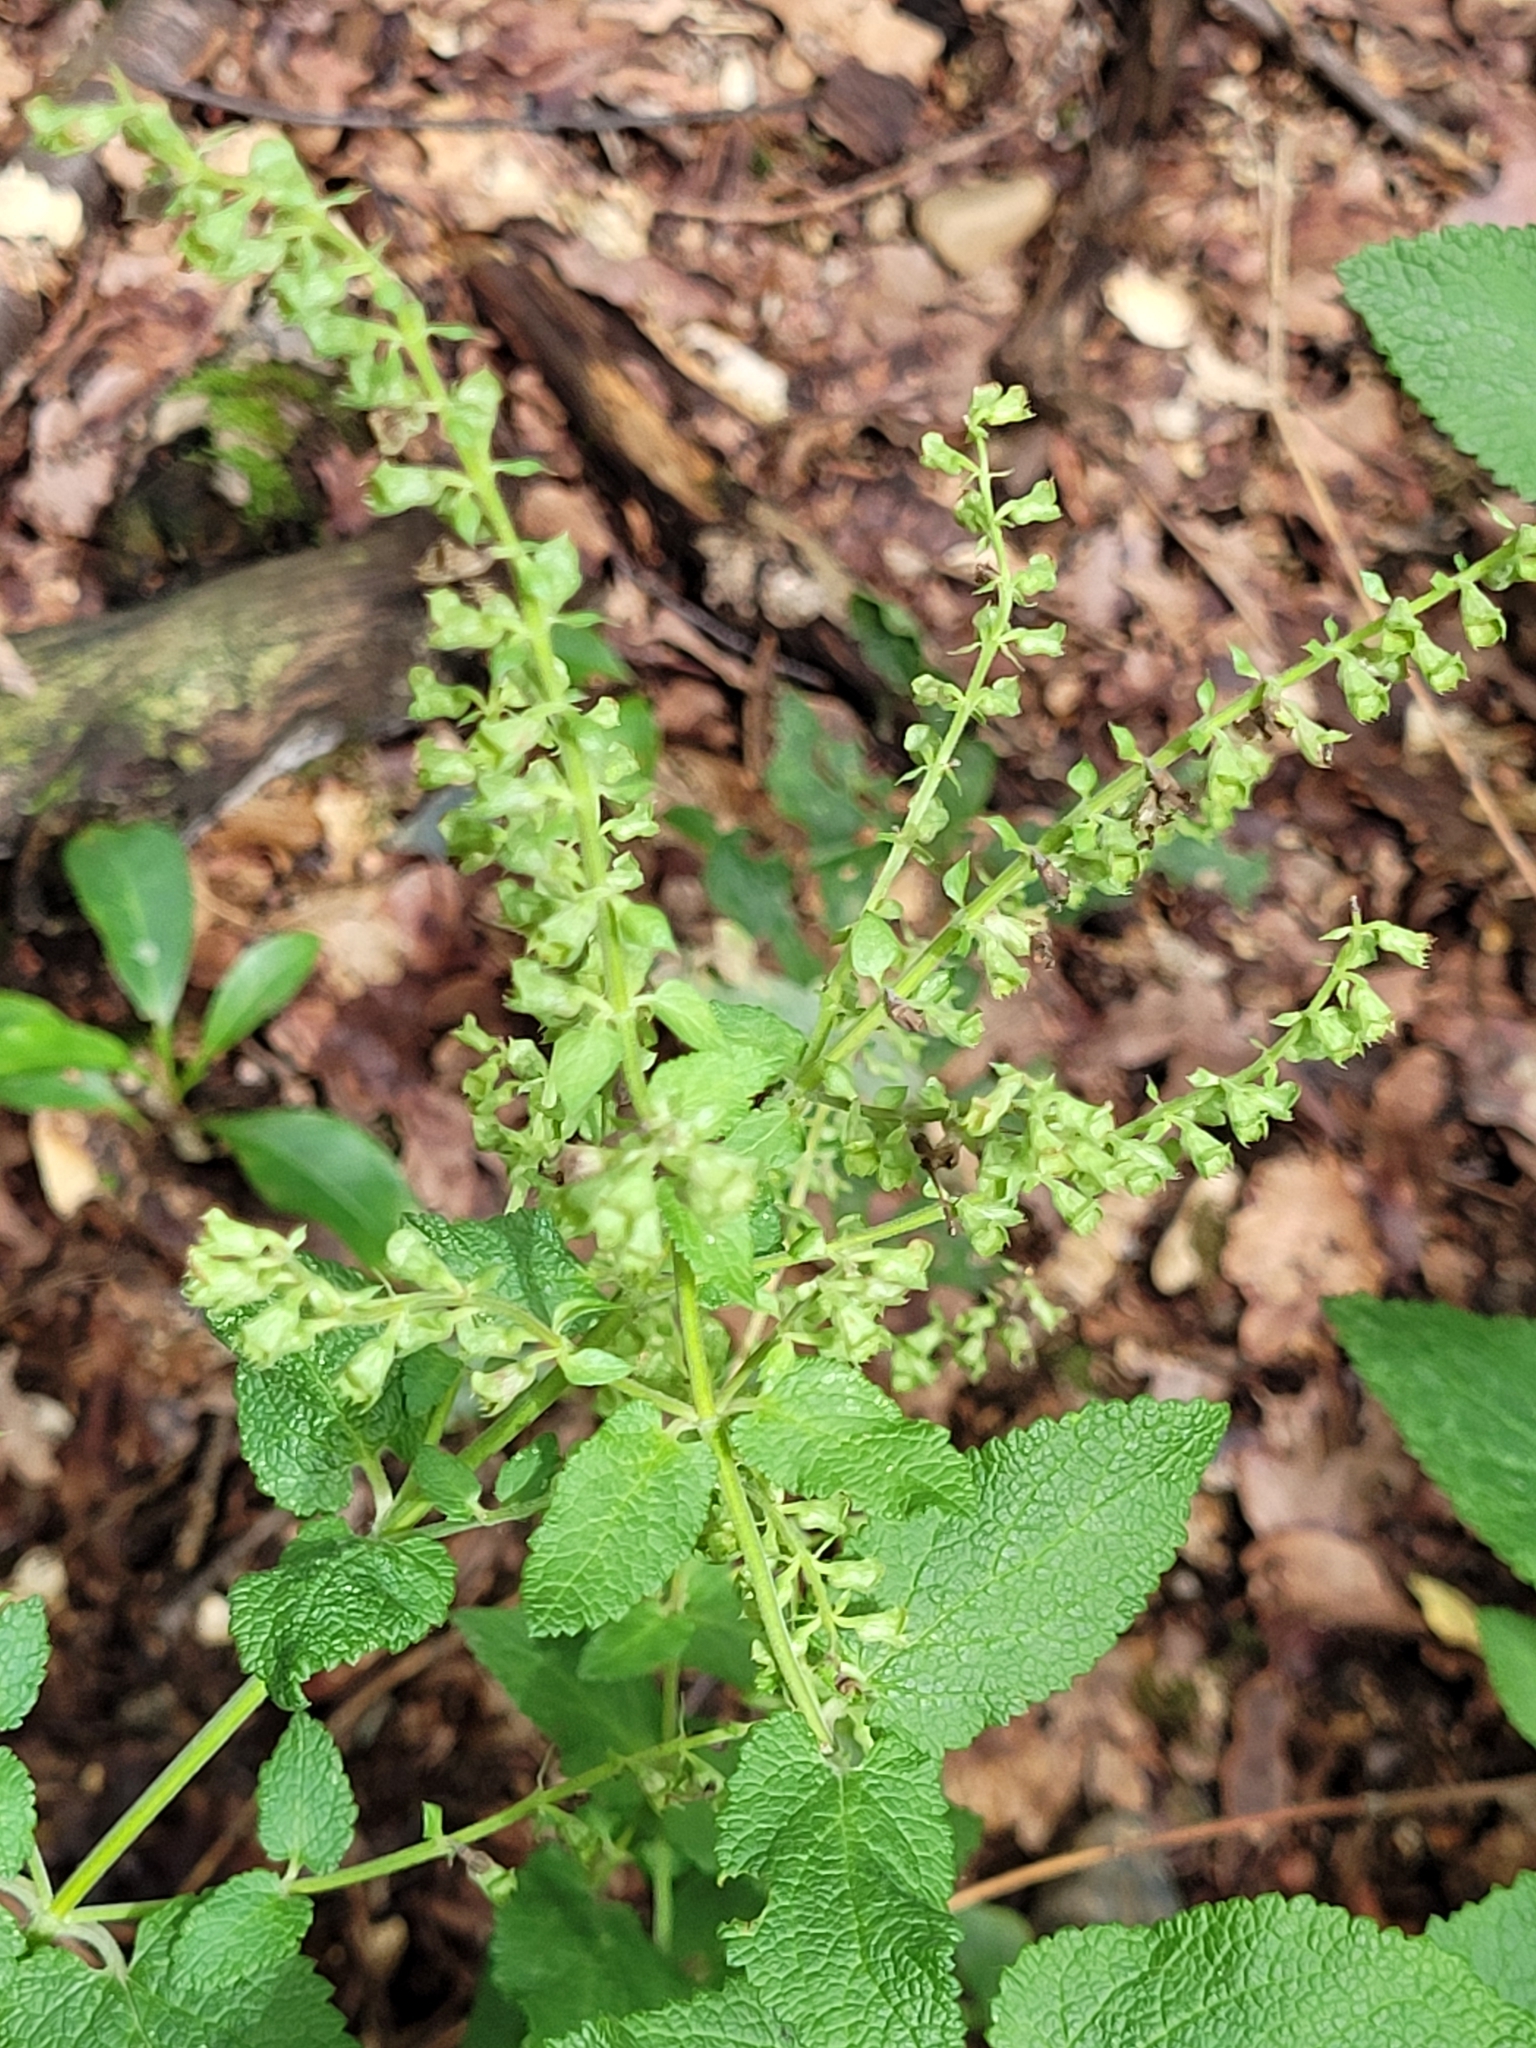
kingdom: Plantae
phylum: Tracheophyta
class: Magnoliopsida
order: Lamiales
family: Lamiaceae
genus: Teucrium
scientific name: Teucrium scorodonia
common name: Woodland germander
